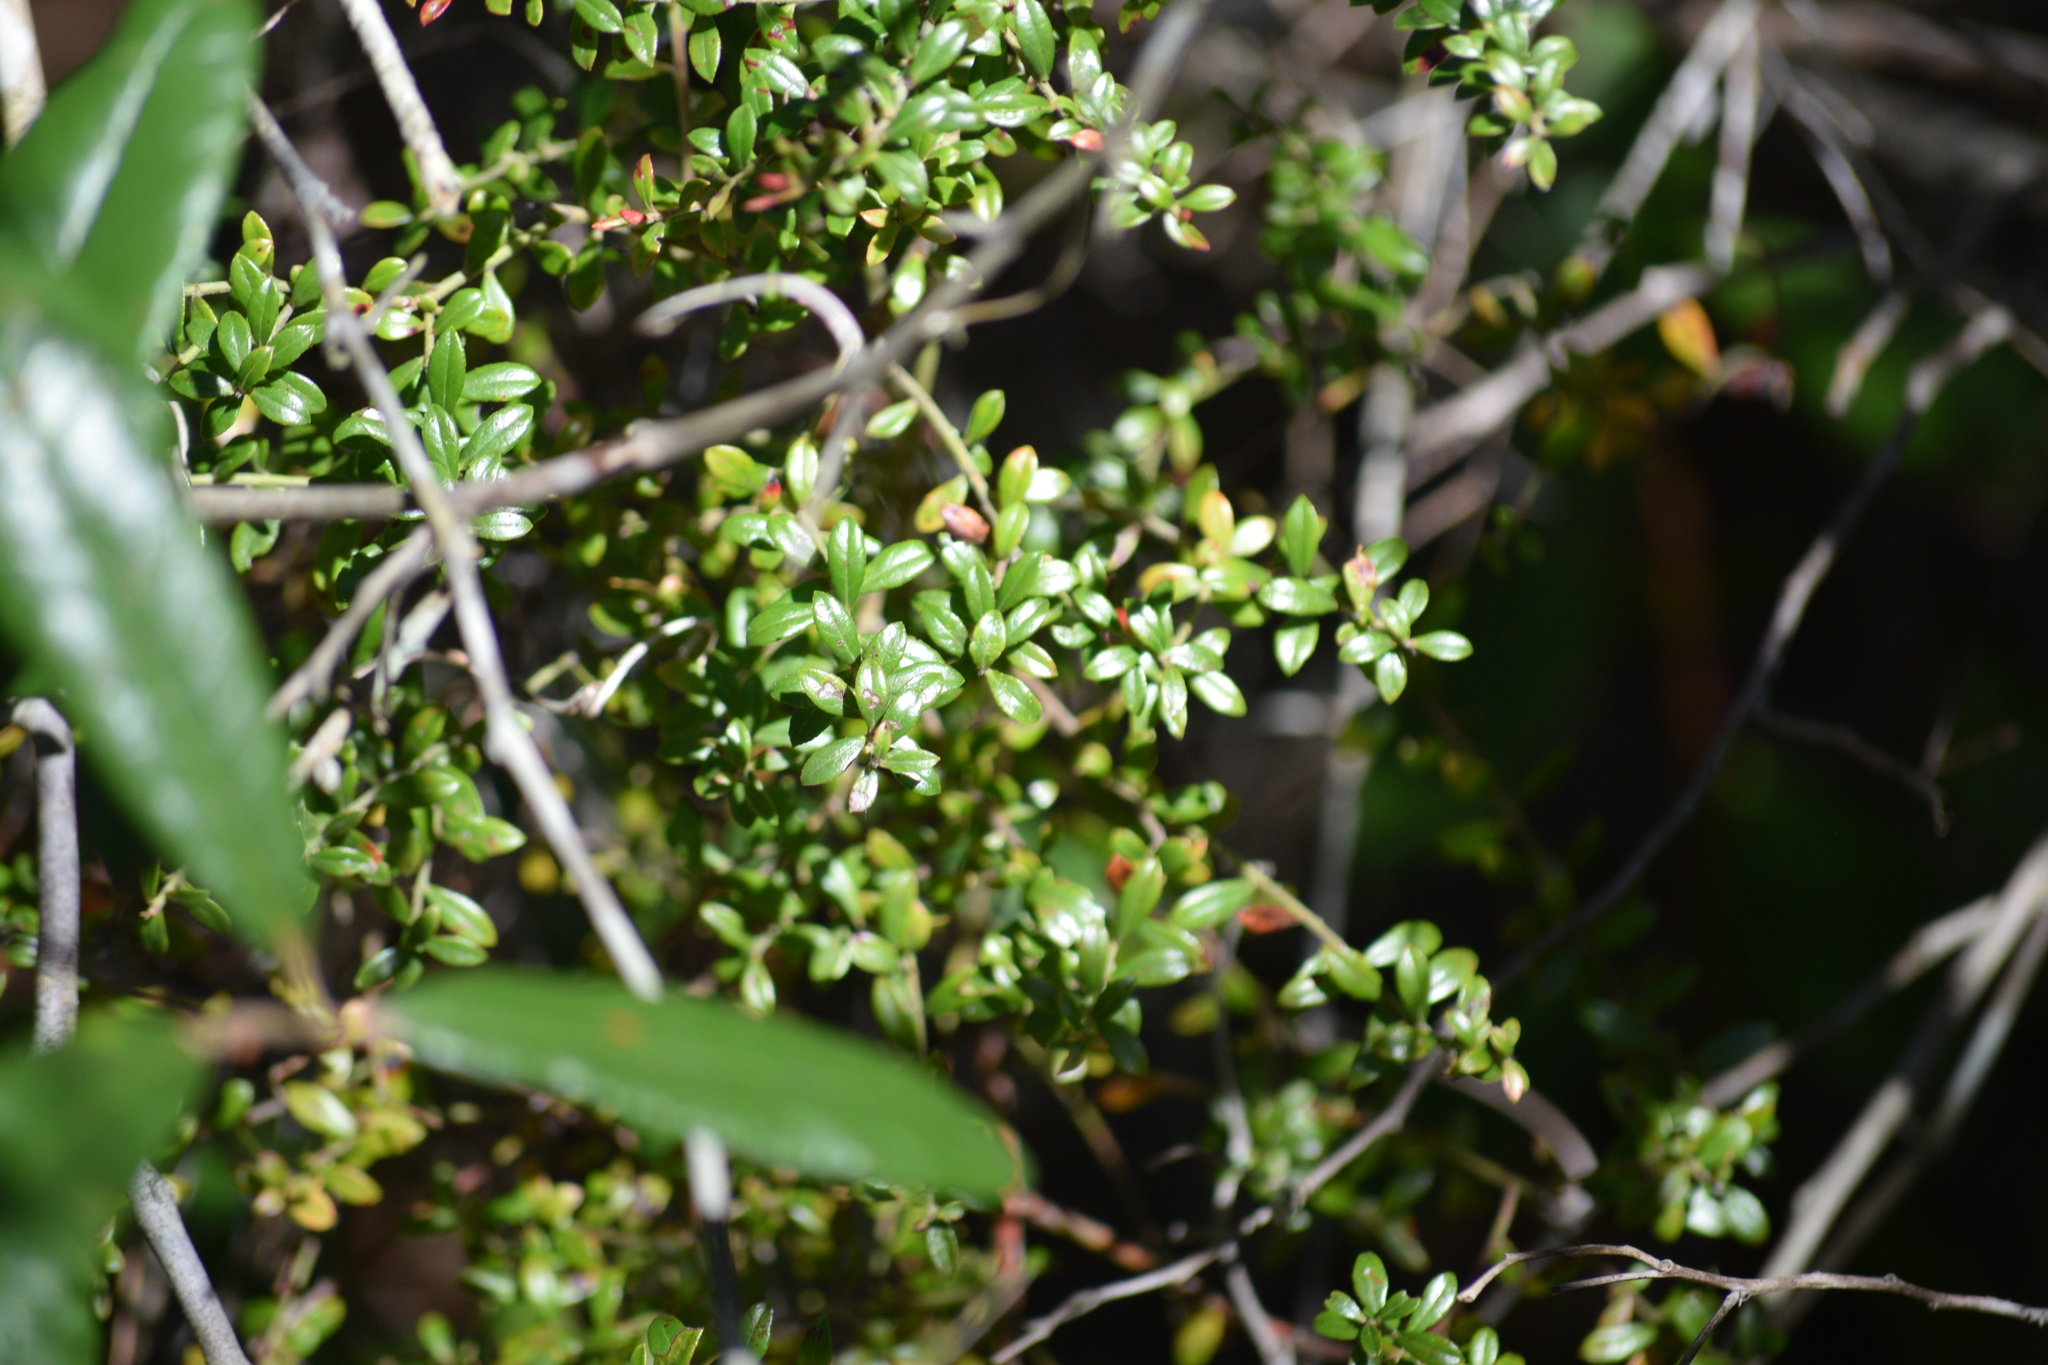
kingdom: Plantae
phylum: Tracheophyta
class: Magnoliopsida
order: Ericales
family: Ericaceae
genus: Vaccinium
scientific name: Vaccinium myrsinites
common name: Evergreen blueberry
